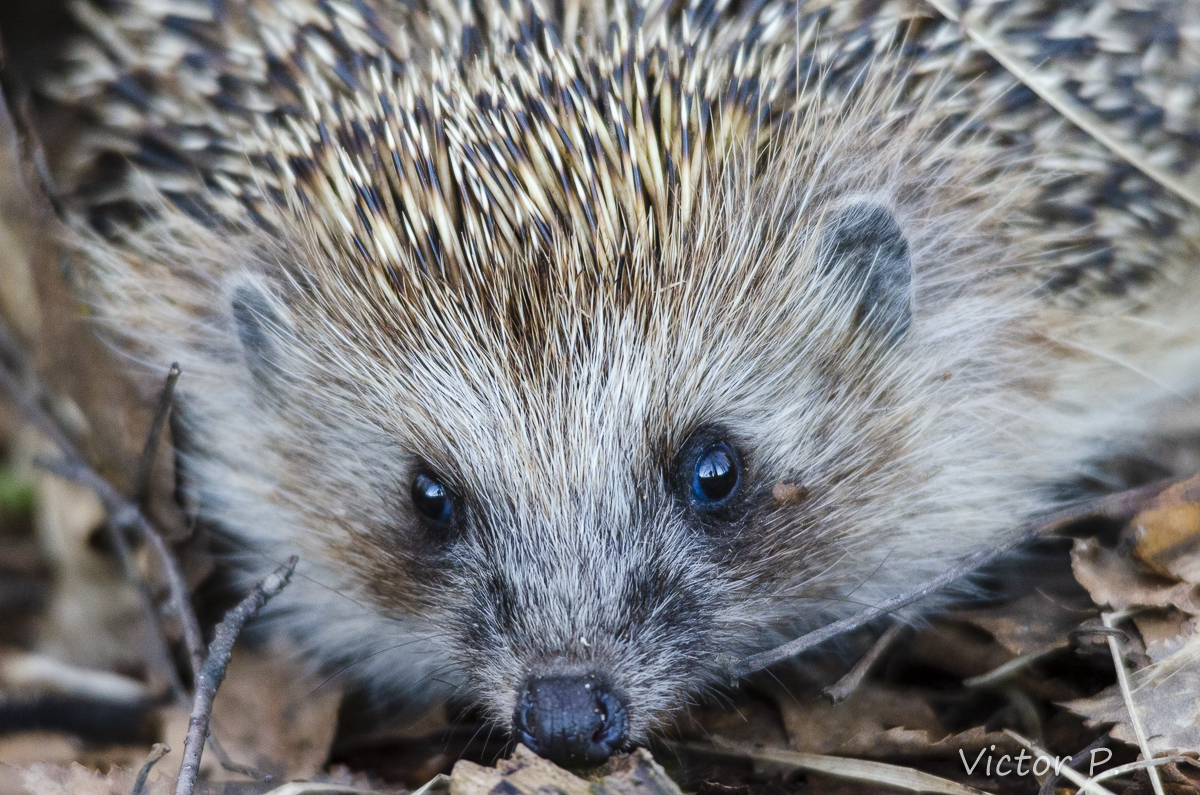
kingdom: Animalia
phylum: Chordata
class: Mammalia
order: Erinaceomorpha
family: Erinaceidae
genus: Erinaceus
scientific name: Erinaceus europaeus
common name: West european hedgehog
